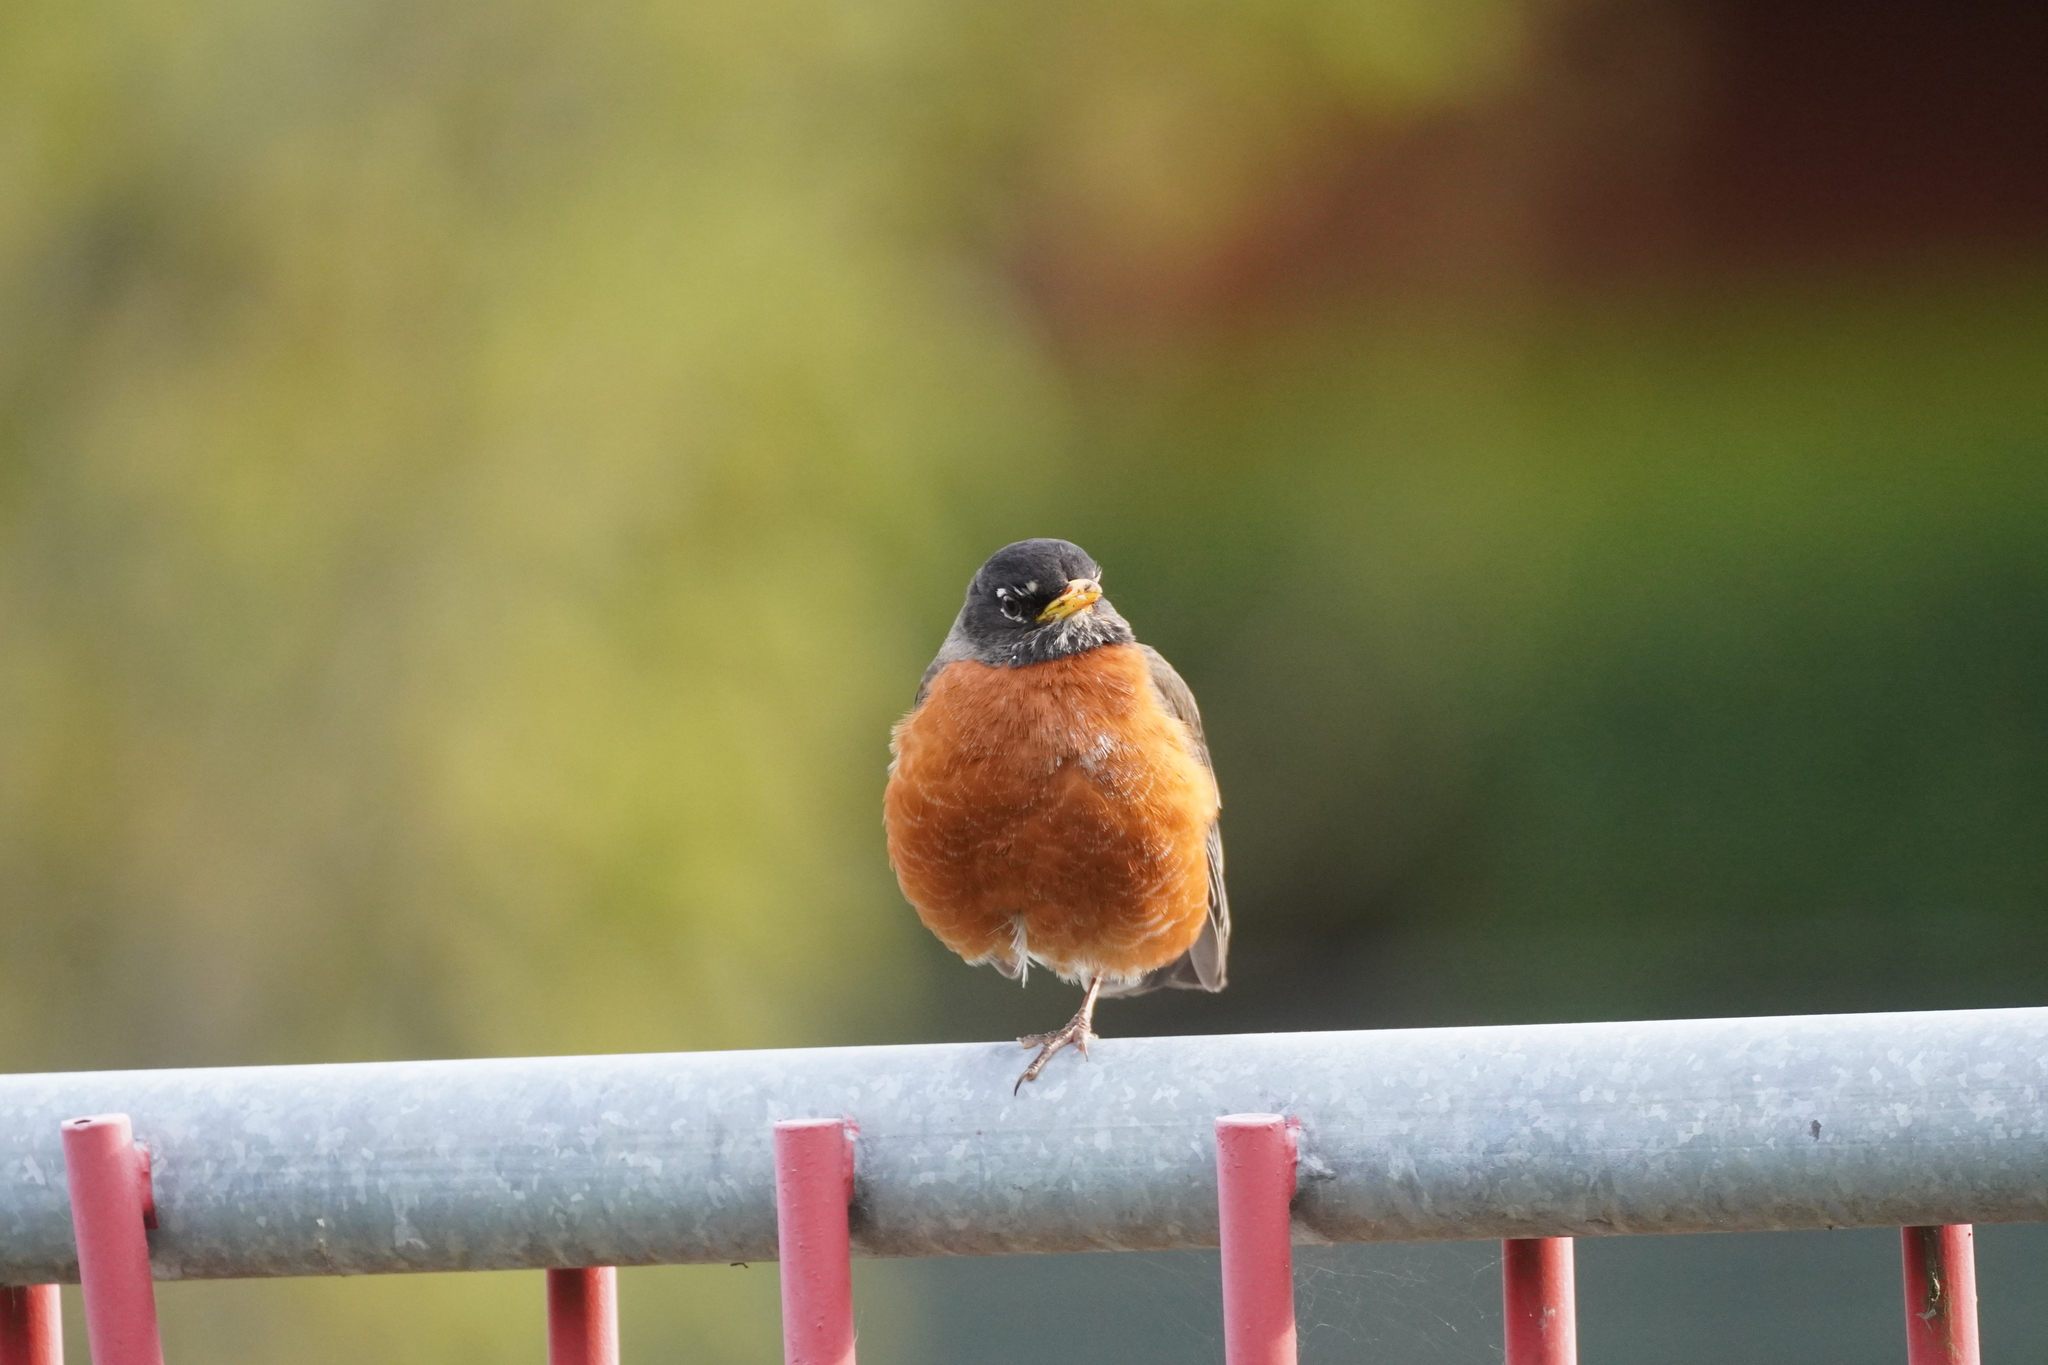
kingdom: Animalia
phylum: Chordata
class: Aves
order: Passeriformes
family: Turdidae
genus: Turdus
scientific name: Turdus migratorius
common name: American robin
